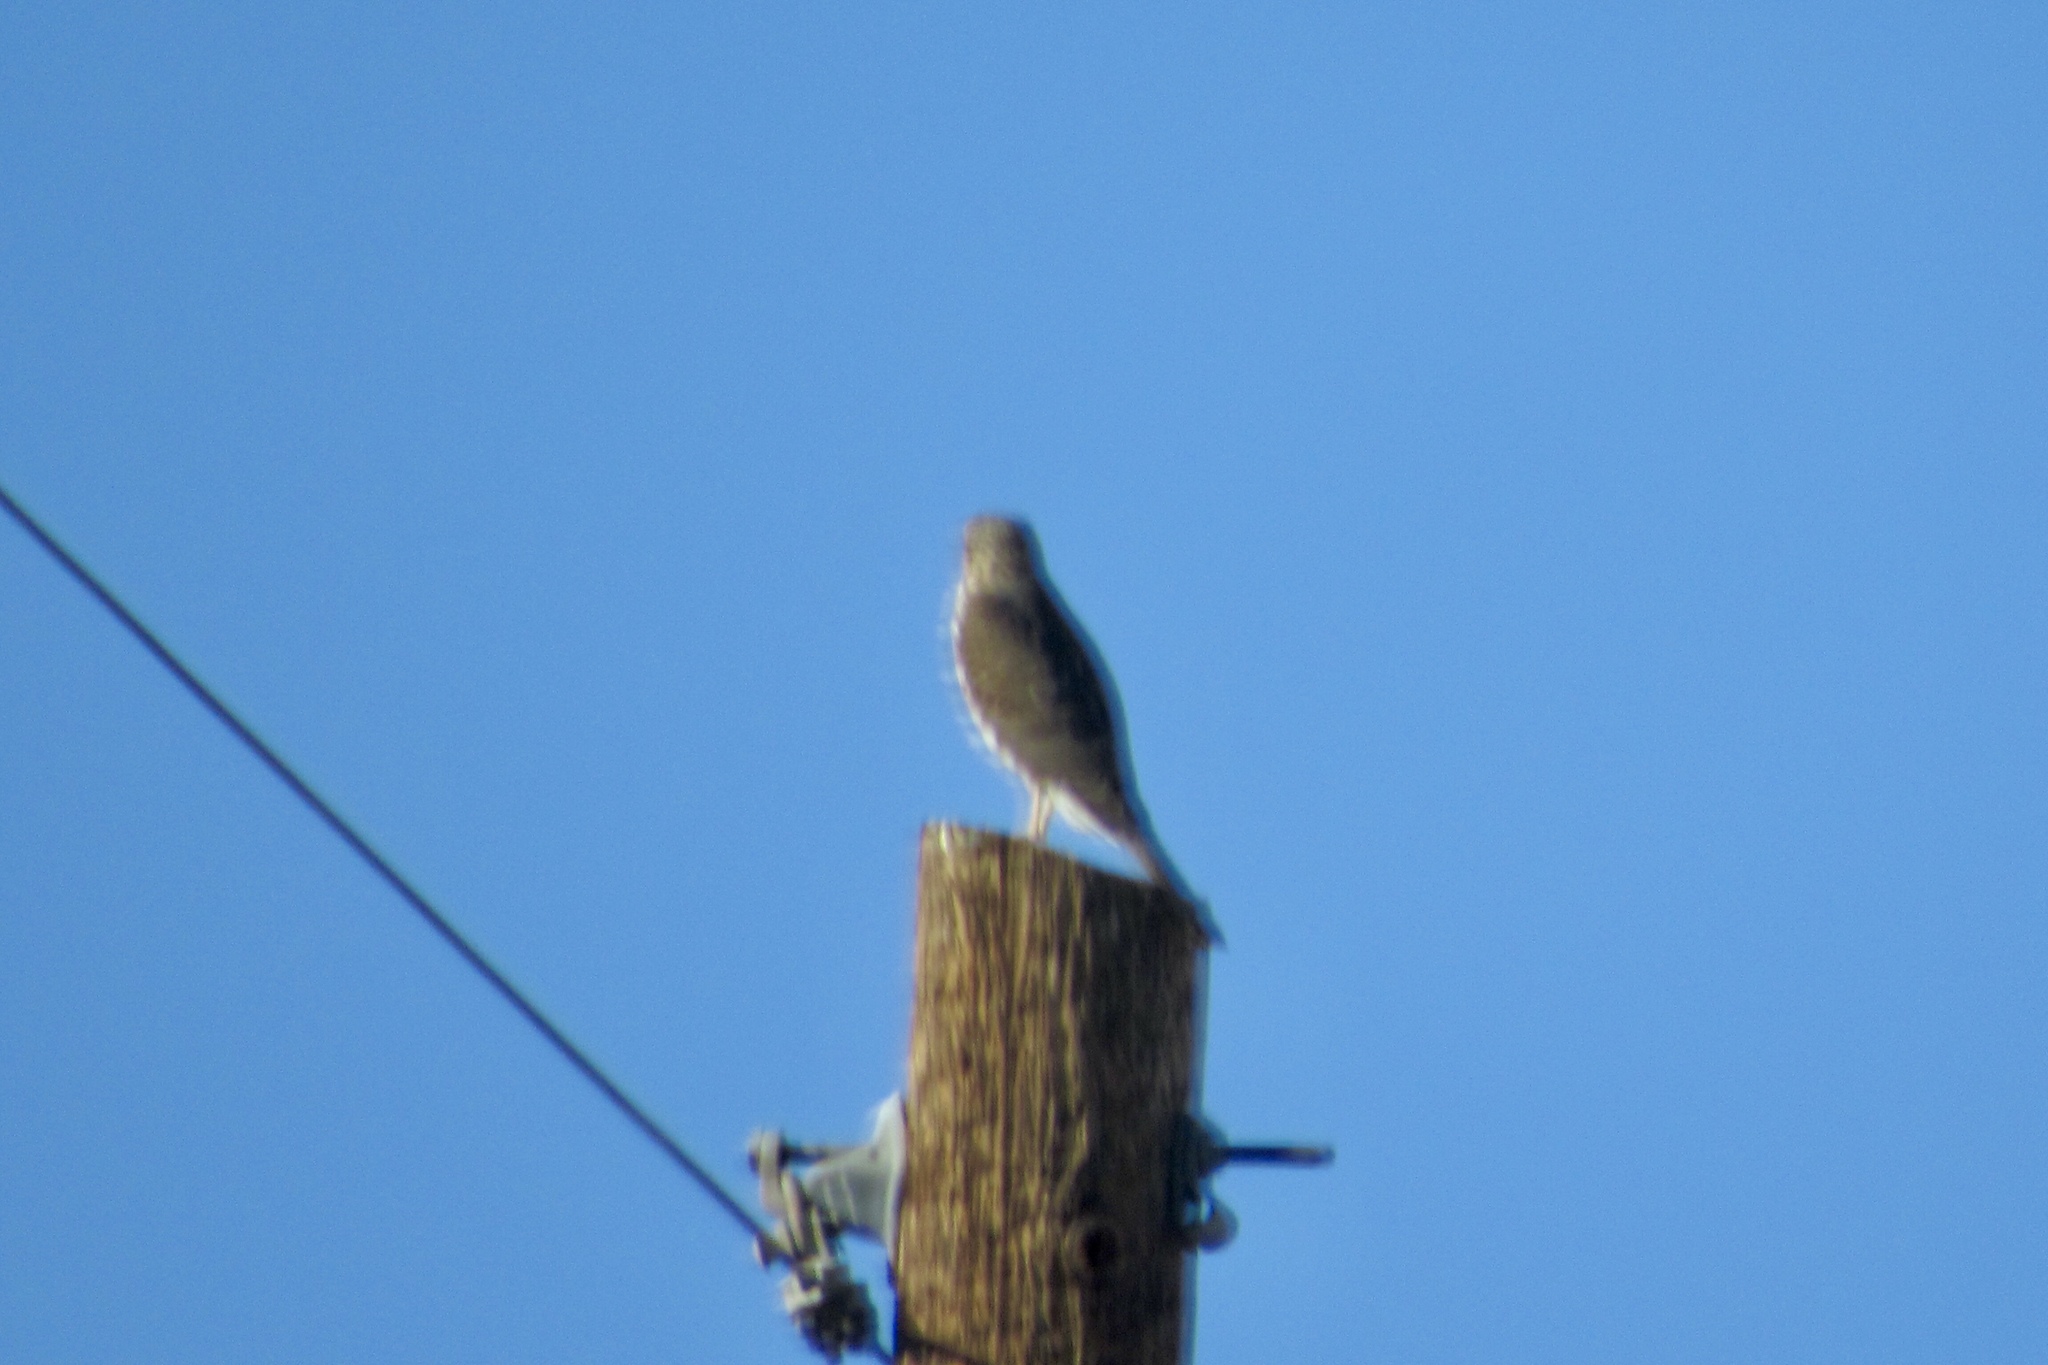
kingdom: Animalia
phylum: Chordata
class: Aves
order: Accipitriformes
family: Accipitridae
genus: Accipiter
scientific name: Accipiter cooperii
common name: Cooper's hawk
